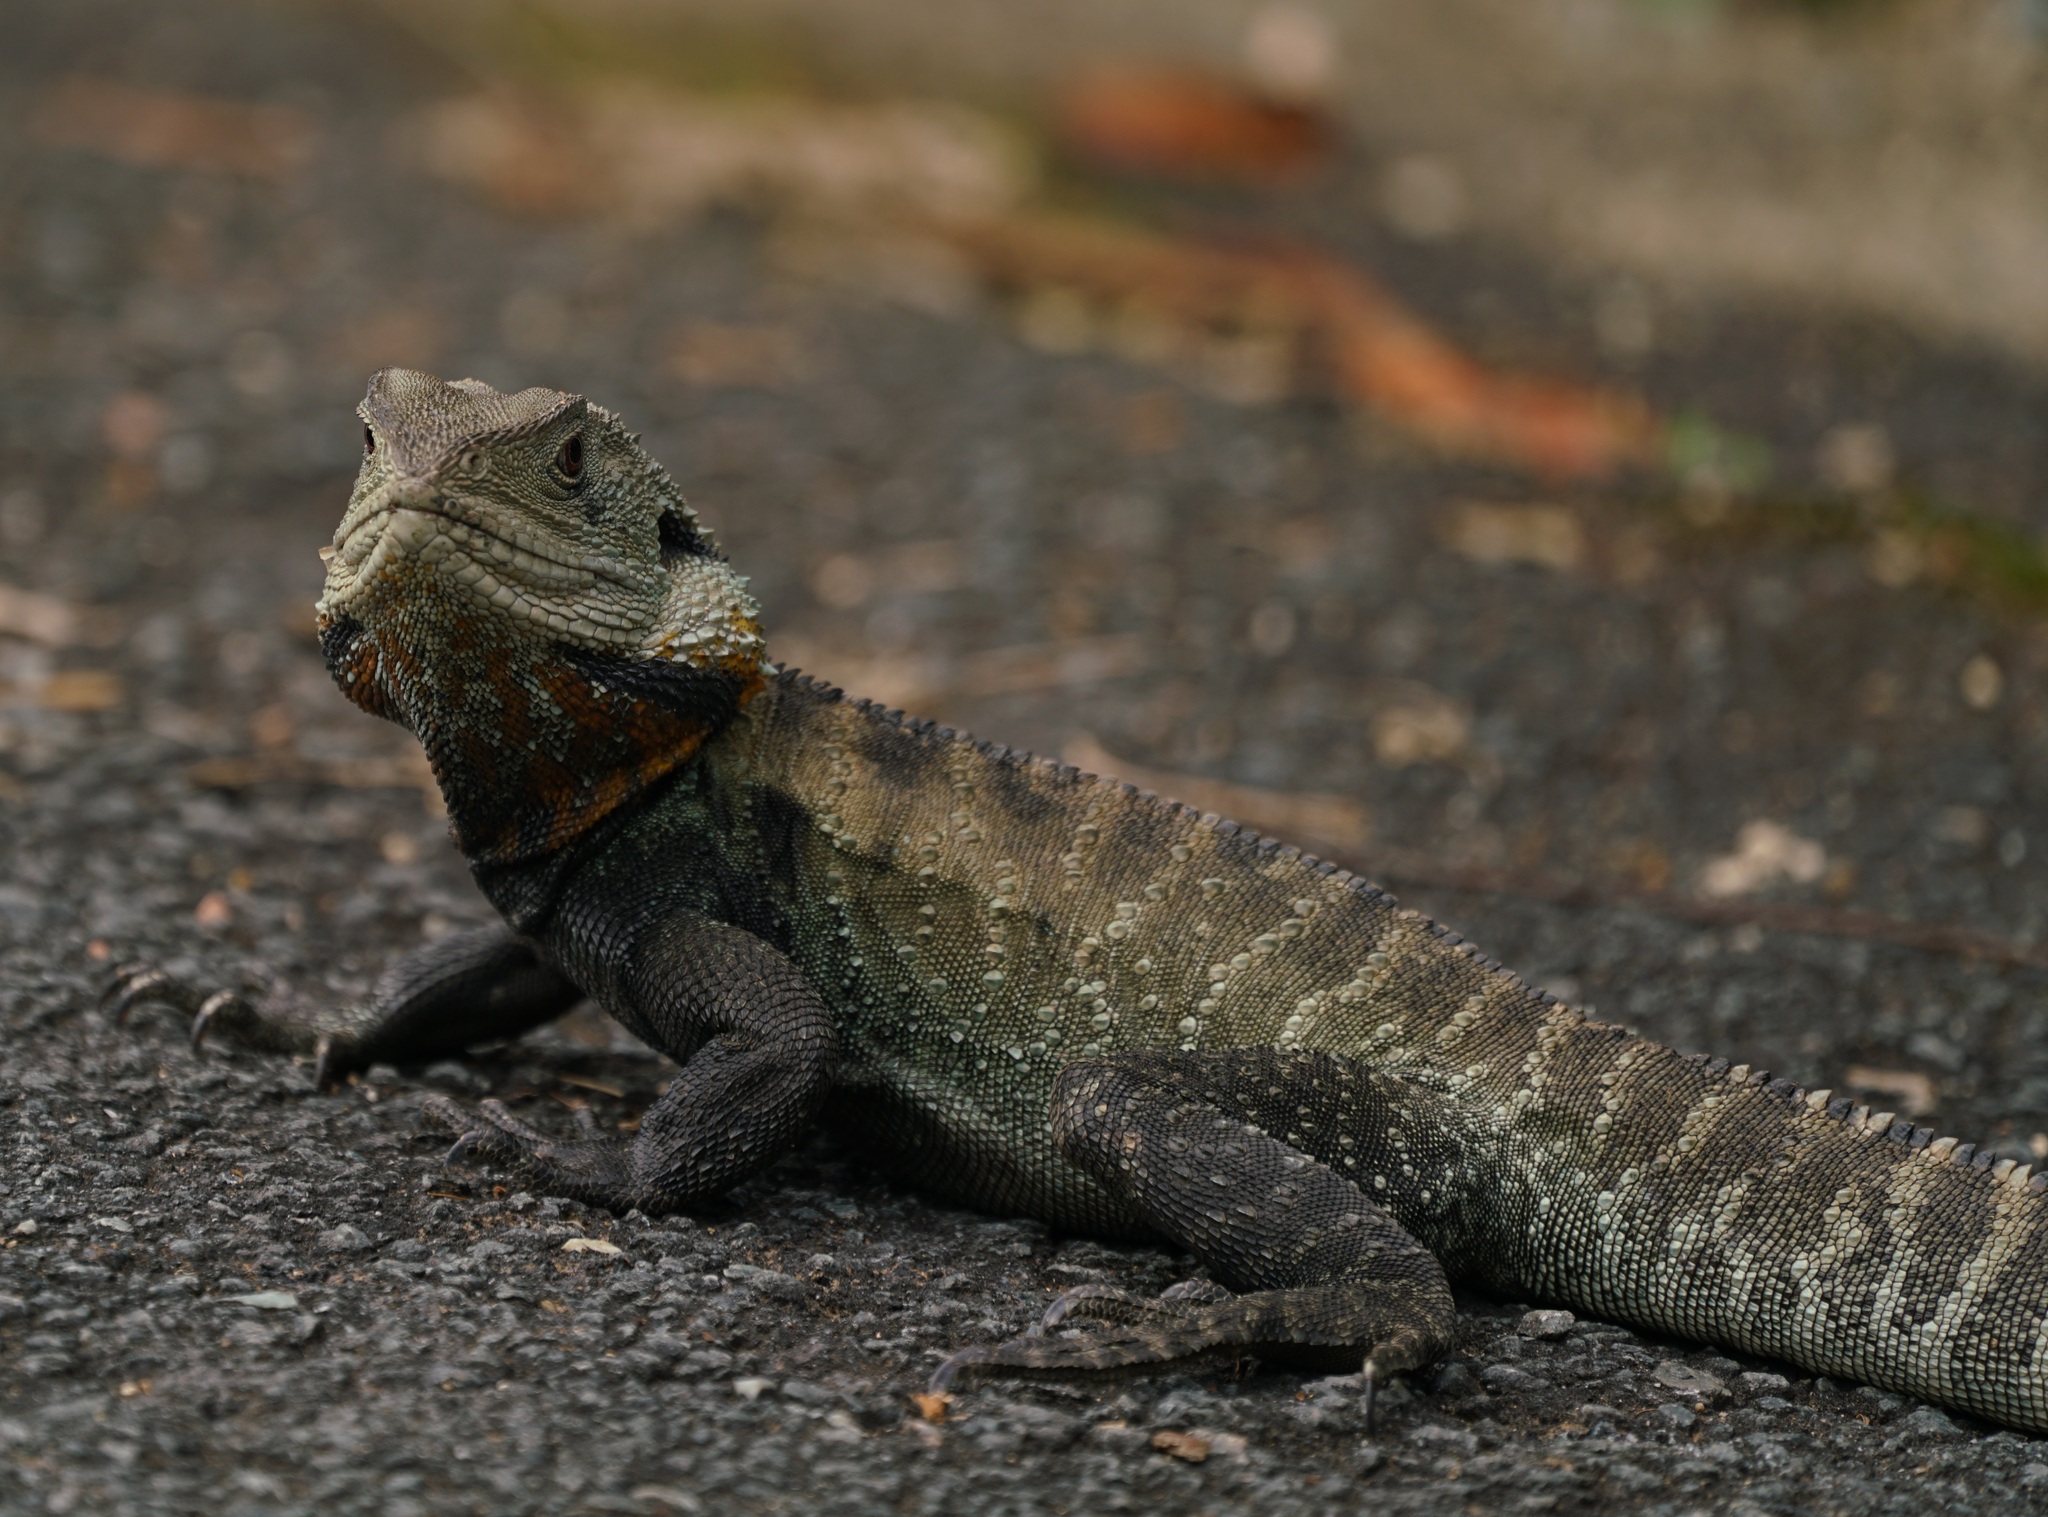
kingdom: Animalia
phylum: Chordata
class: Squamata
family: Agamidae
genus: Intellagama
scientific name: Intellagama lesueurii
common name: Eastern water dragon
